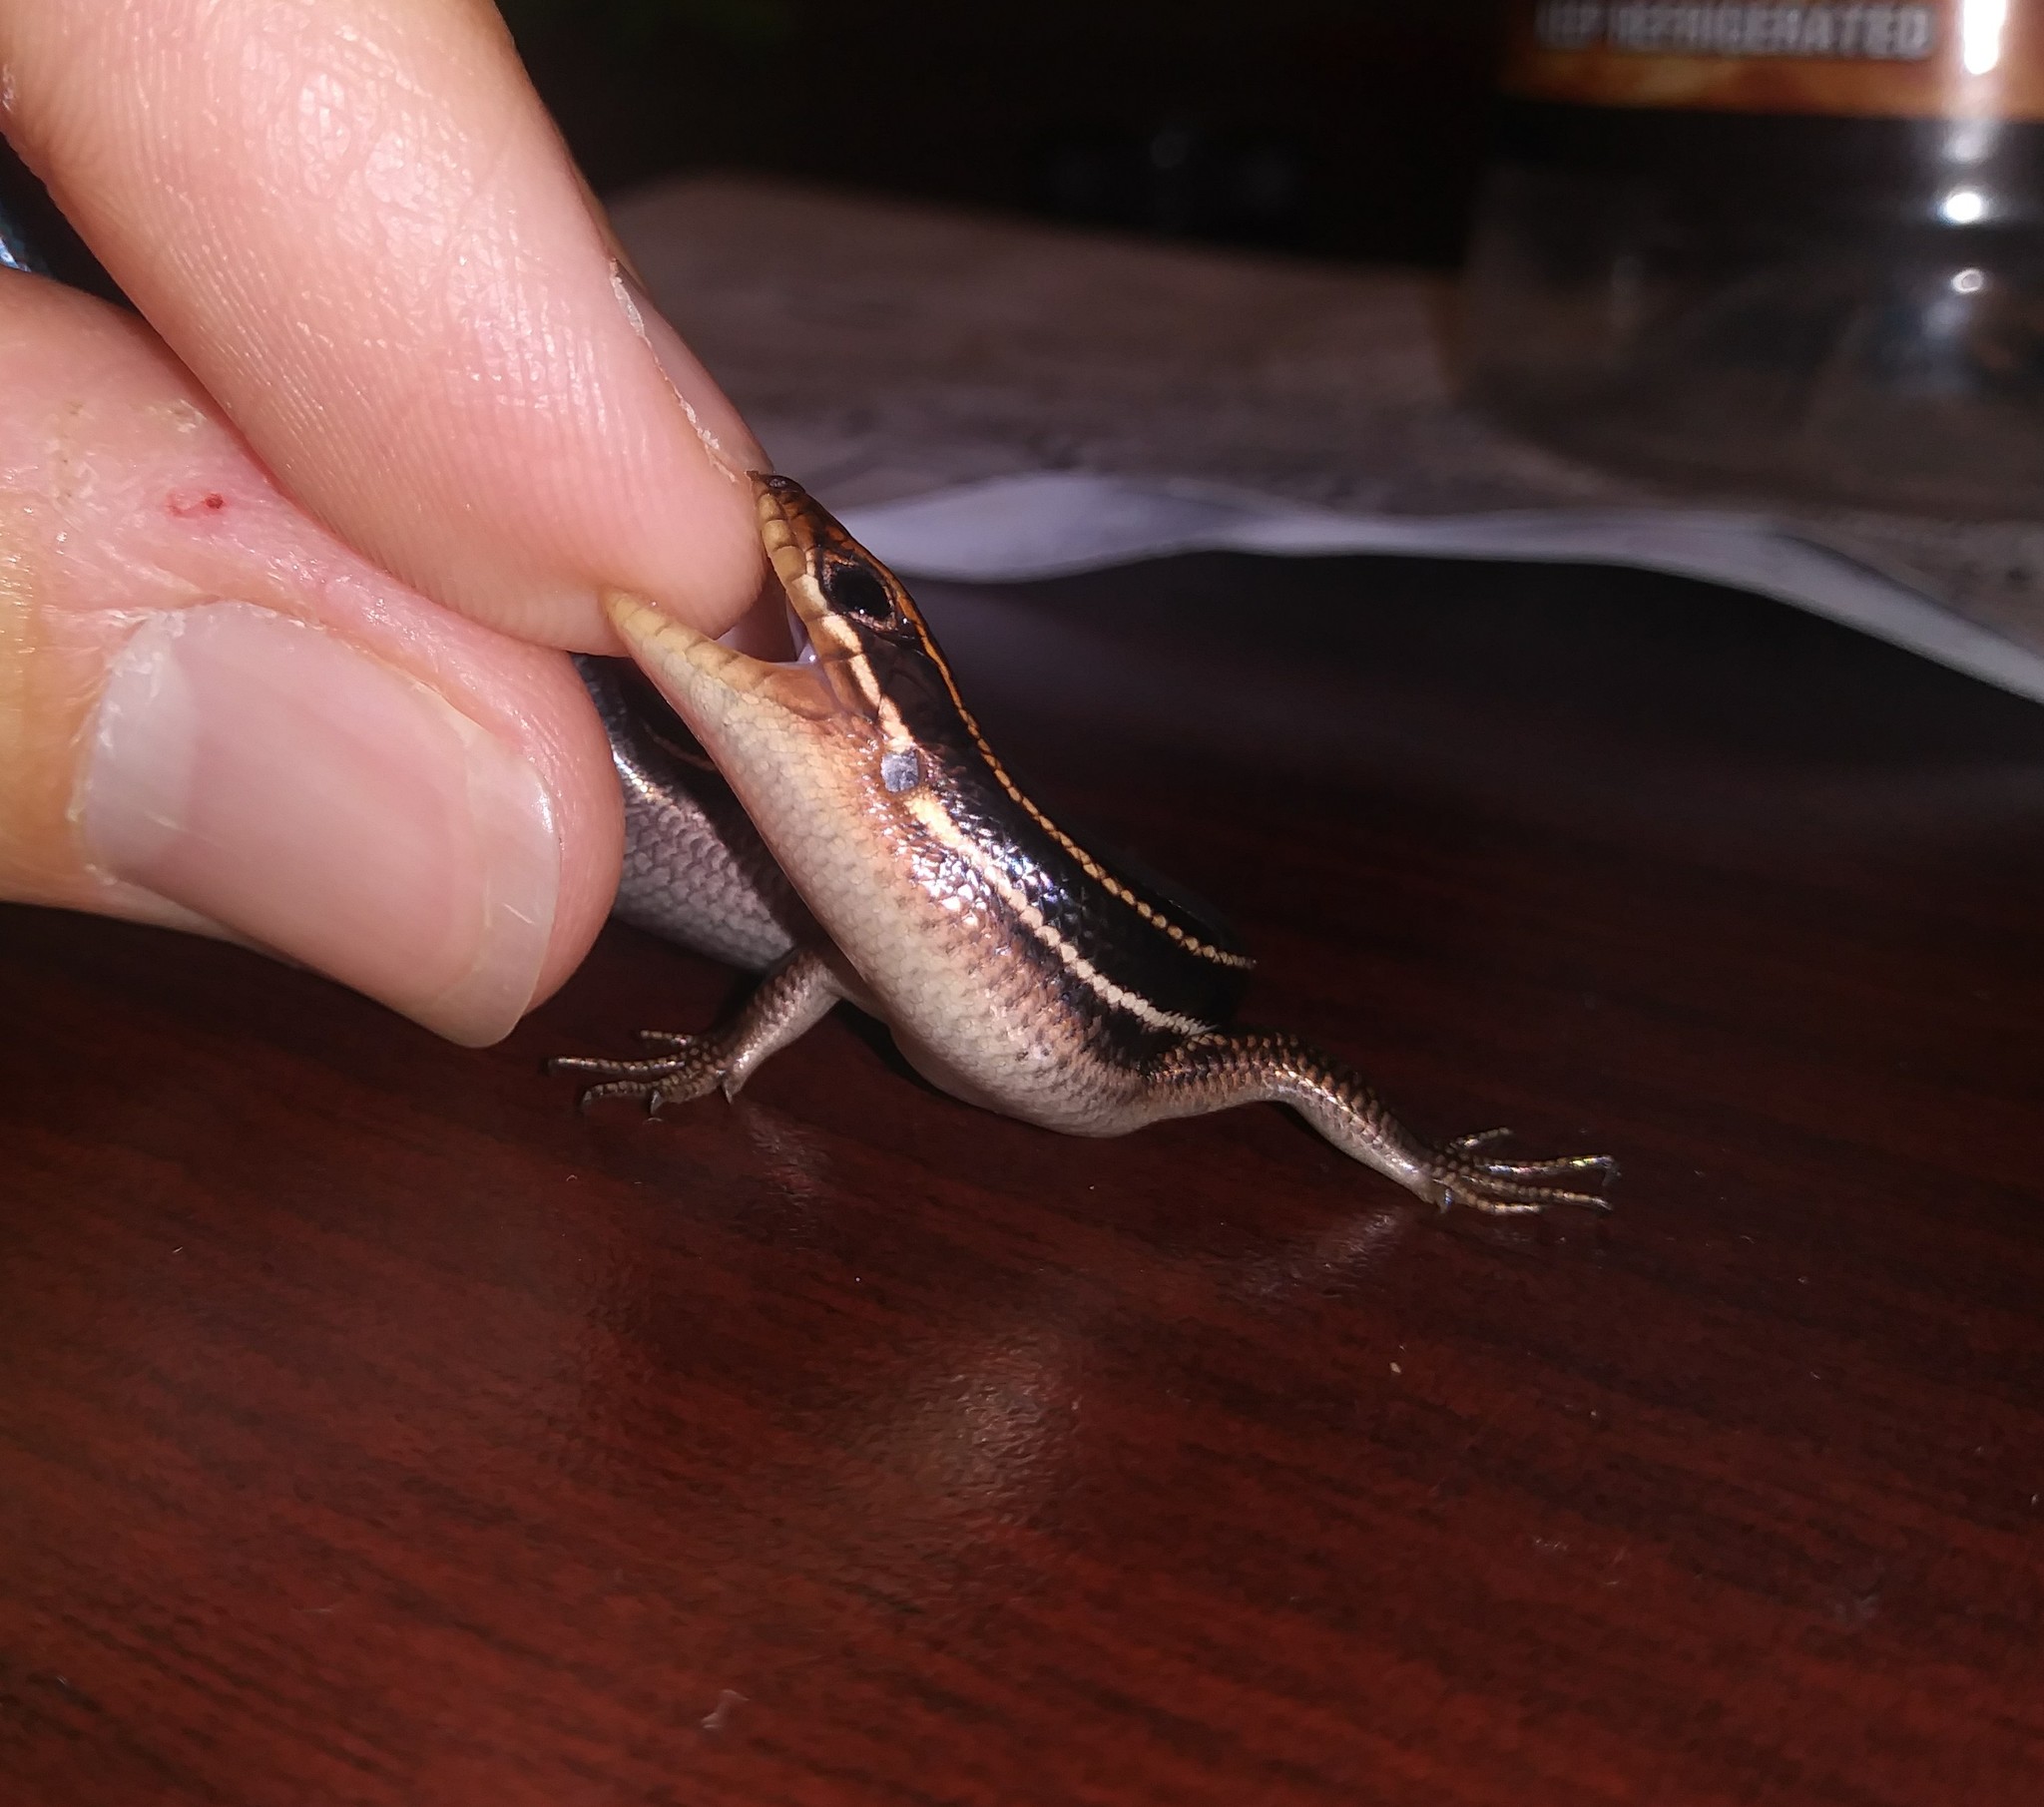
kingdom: Animalia
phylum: Chordata
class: Squamata
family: Scincidae
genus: Plestiodon
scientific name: Plestiodon inexpectatus
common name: Southeastern five-lined skink
